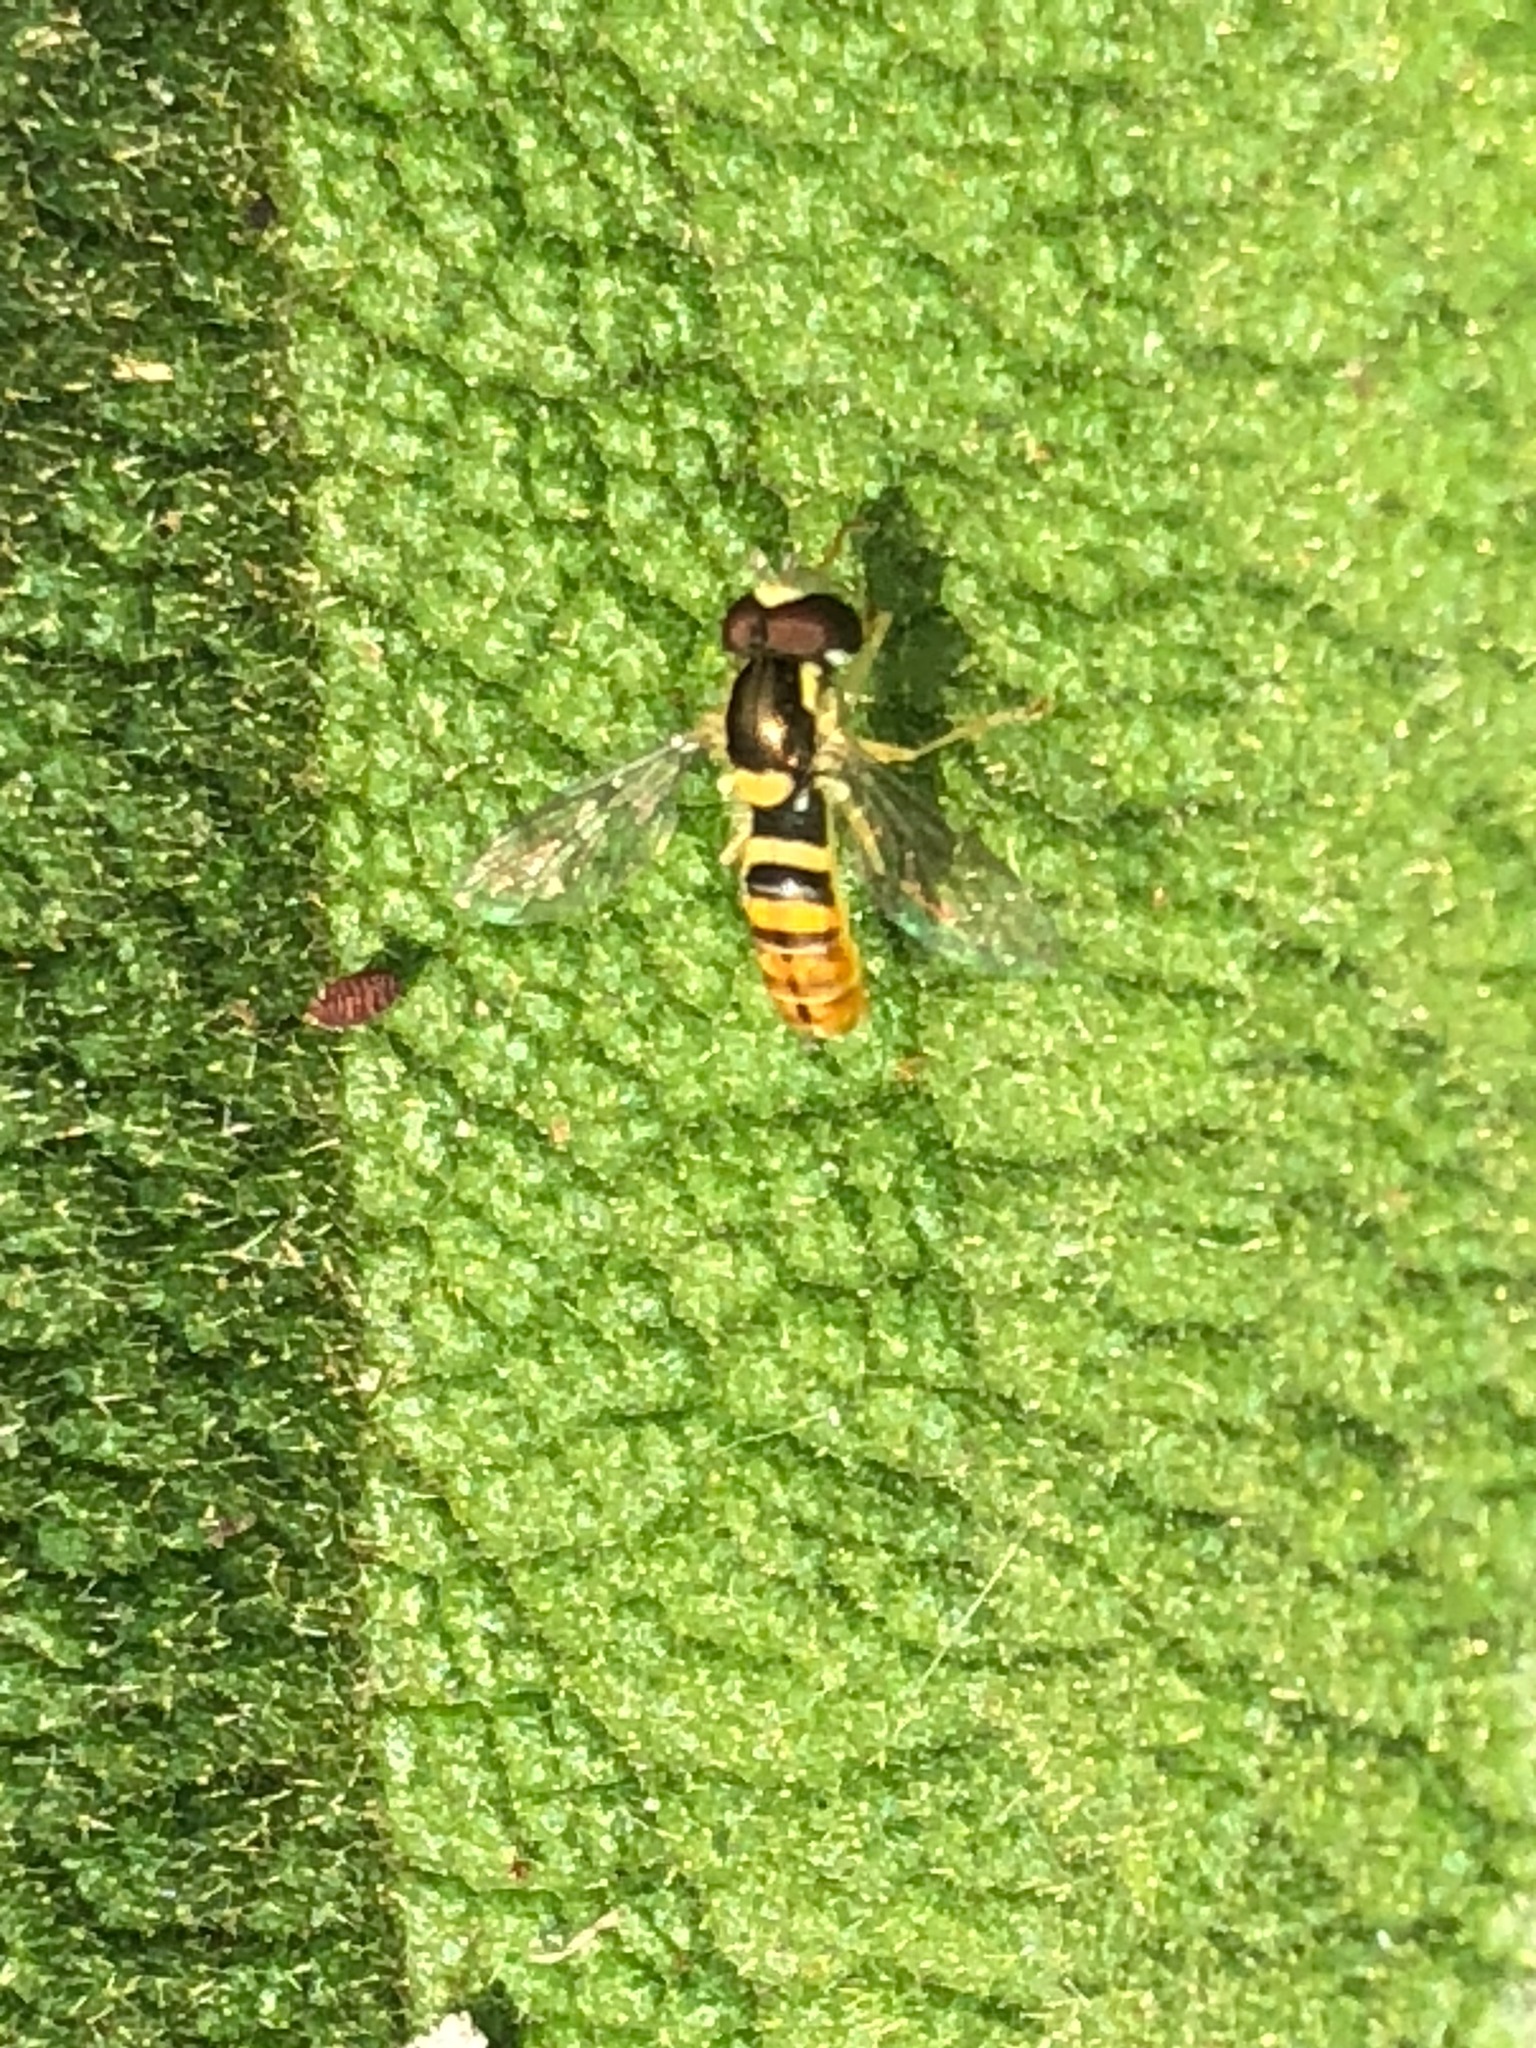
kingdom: Animalia
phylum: Arthropoda
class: Insecta
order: Diptera
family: Syrphidae
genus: Sphaerophoria
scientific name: Sphaerophoria sulphuripes
